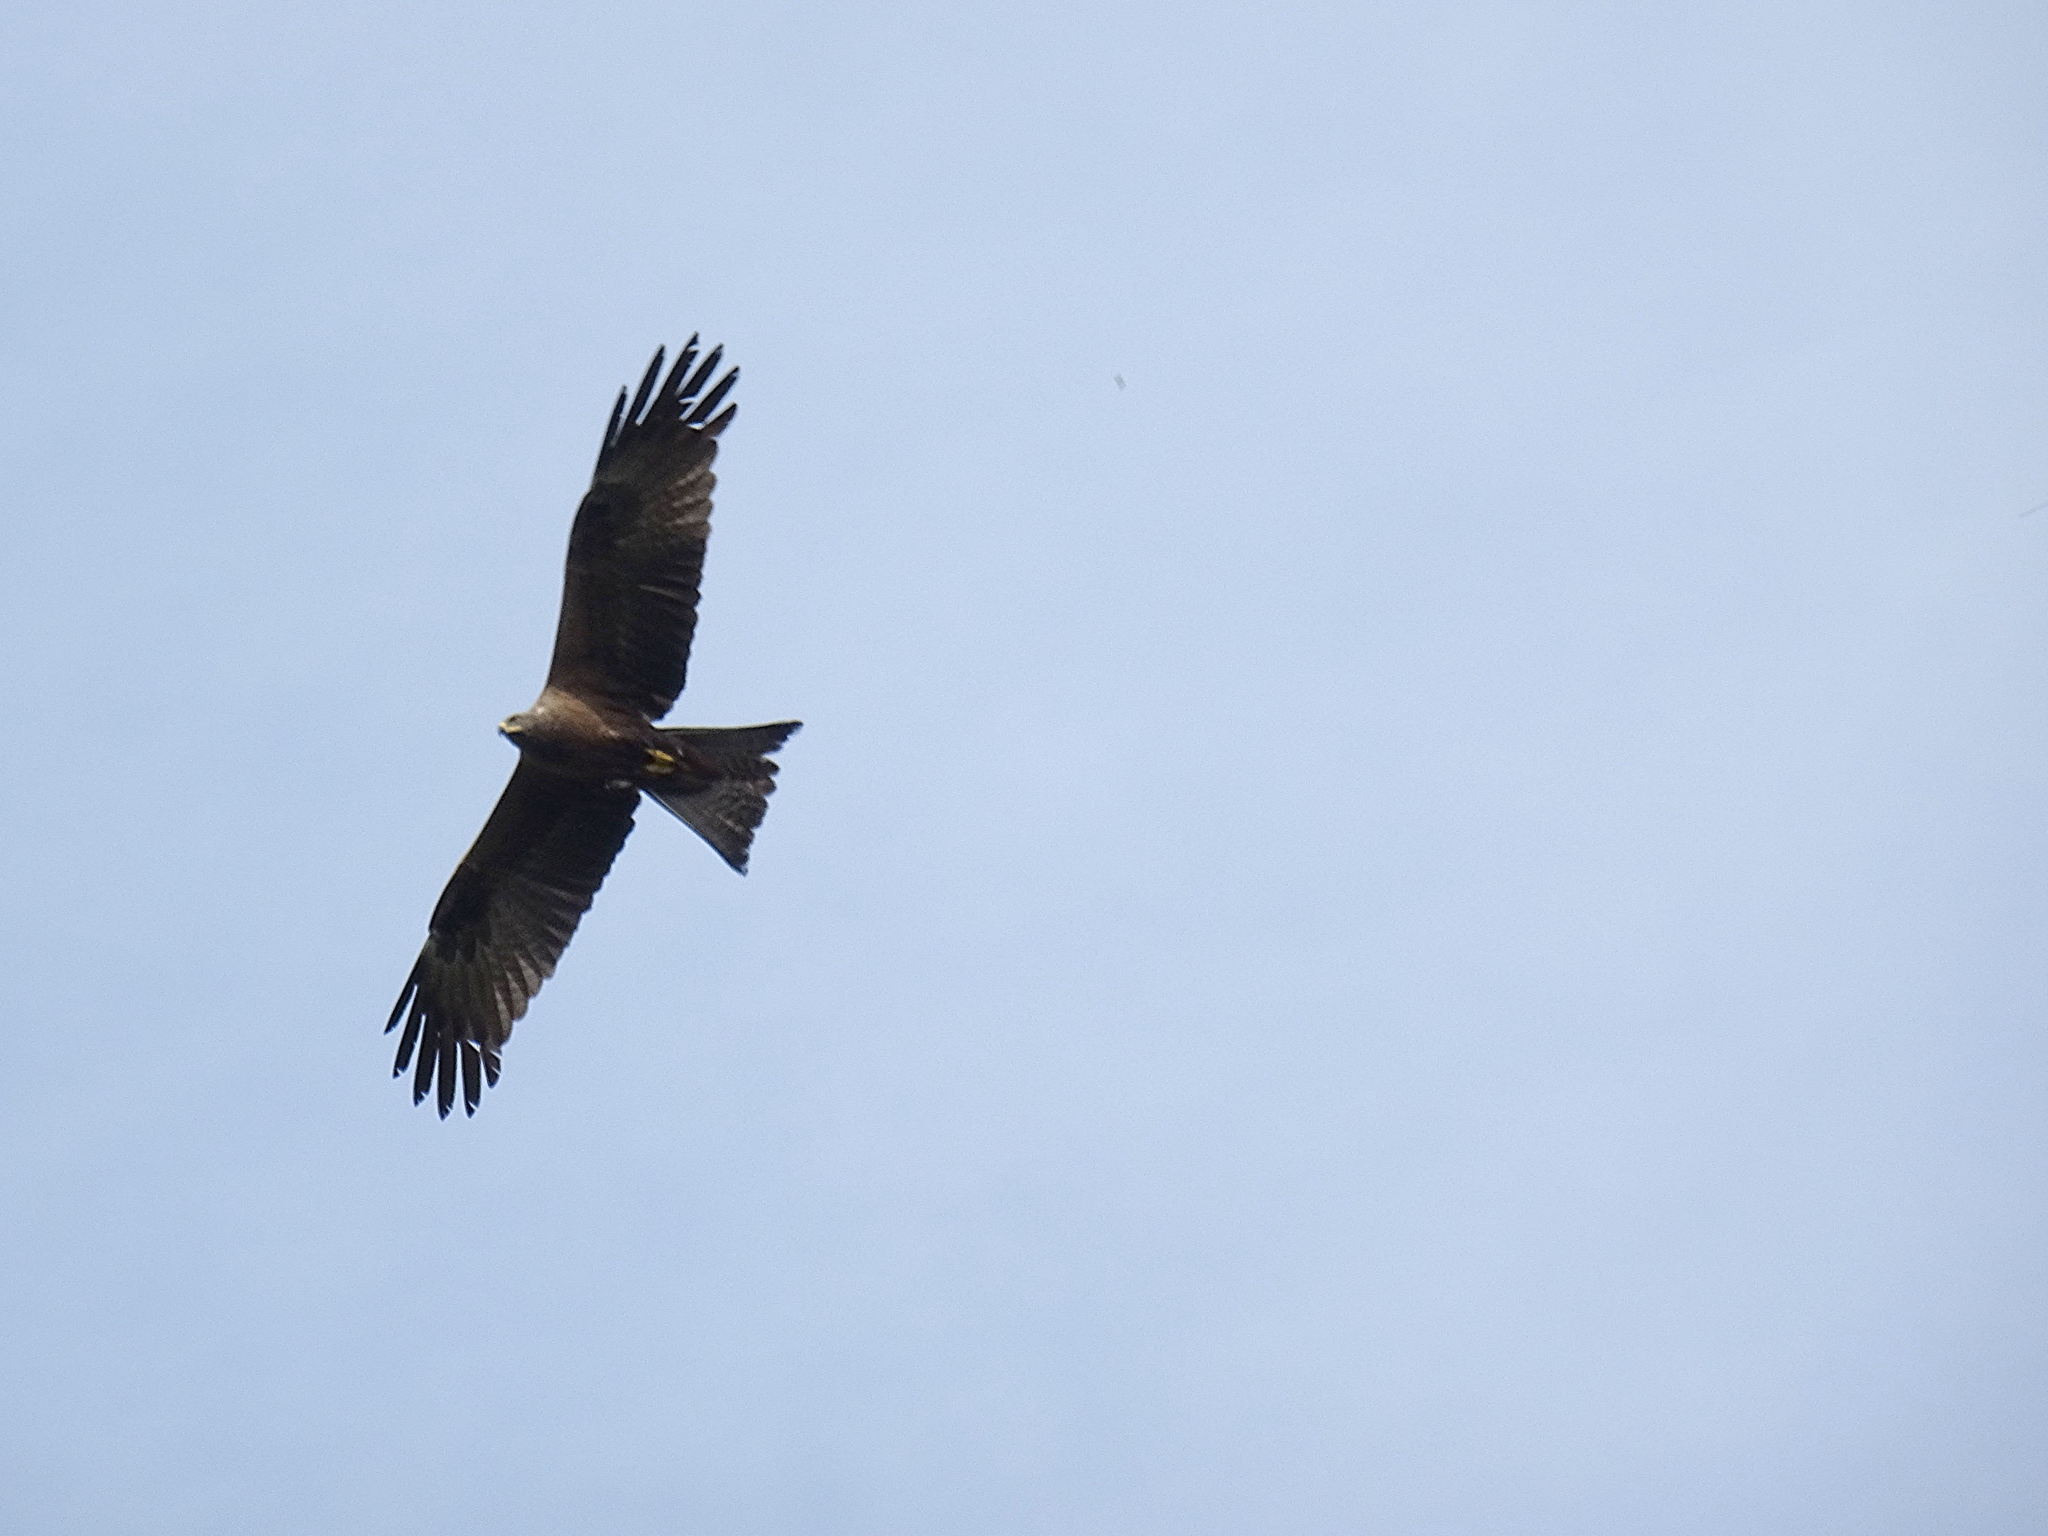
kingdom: Animalia
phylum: Chordata
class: Aves
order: Accipitriformes
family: Accipitridae
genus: Milvus
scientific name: Milvus migrans
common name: Black kite
